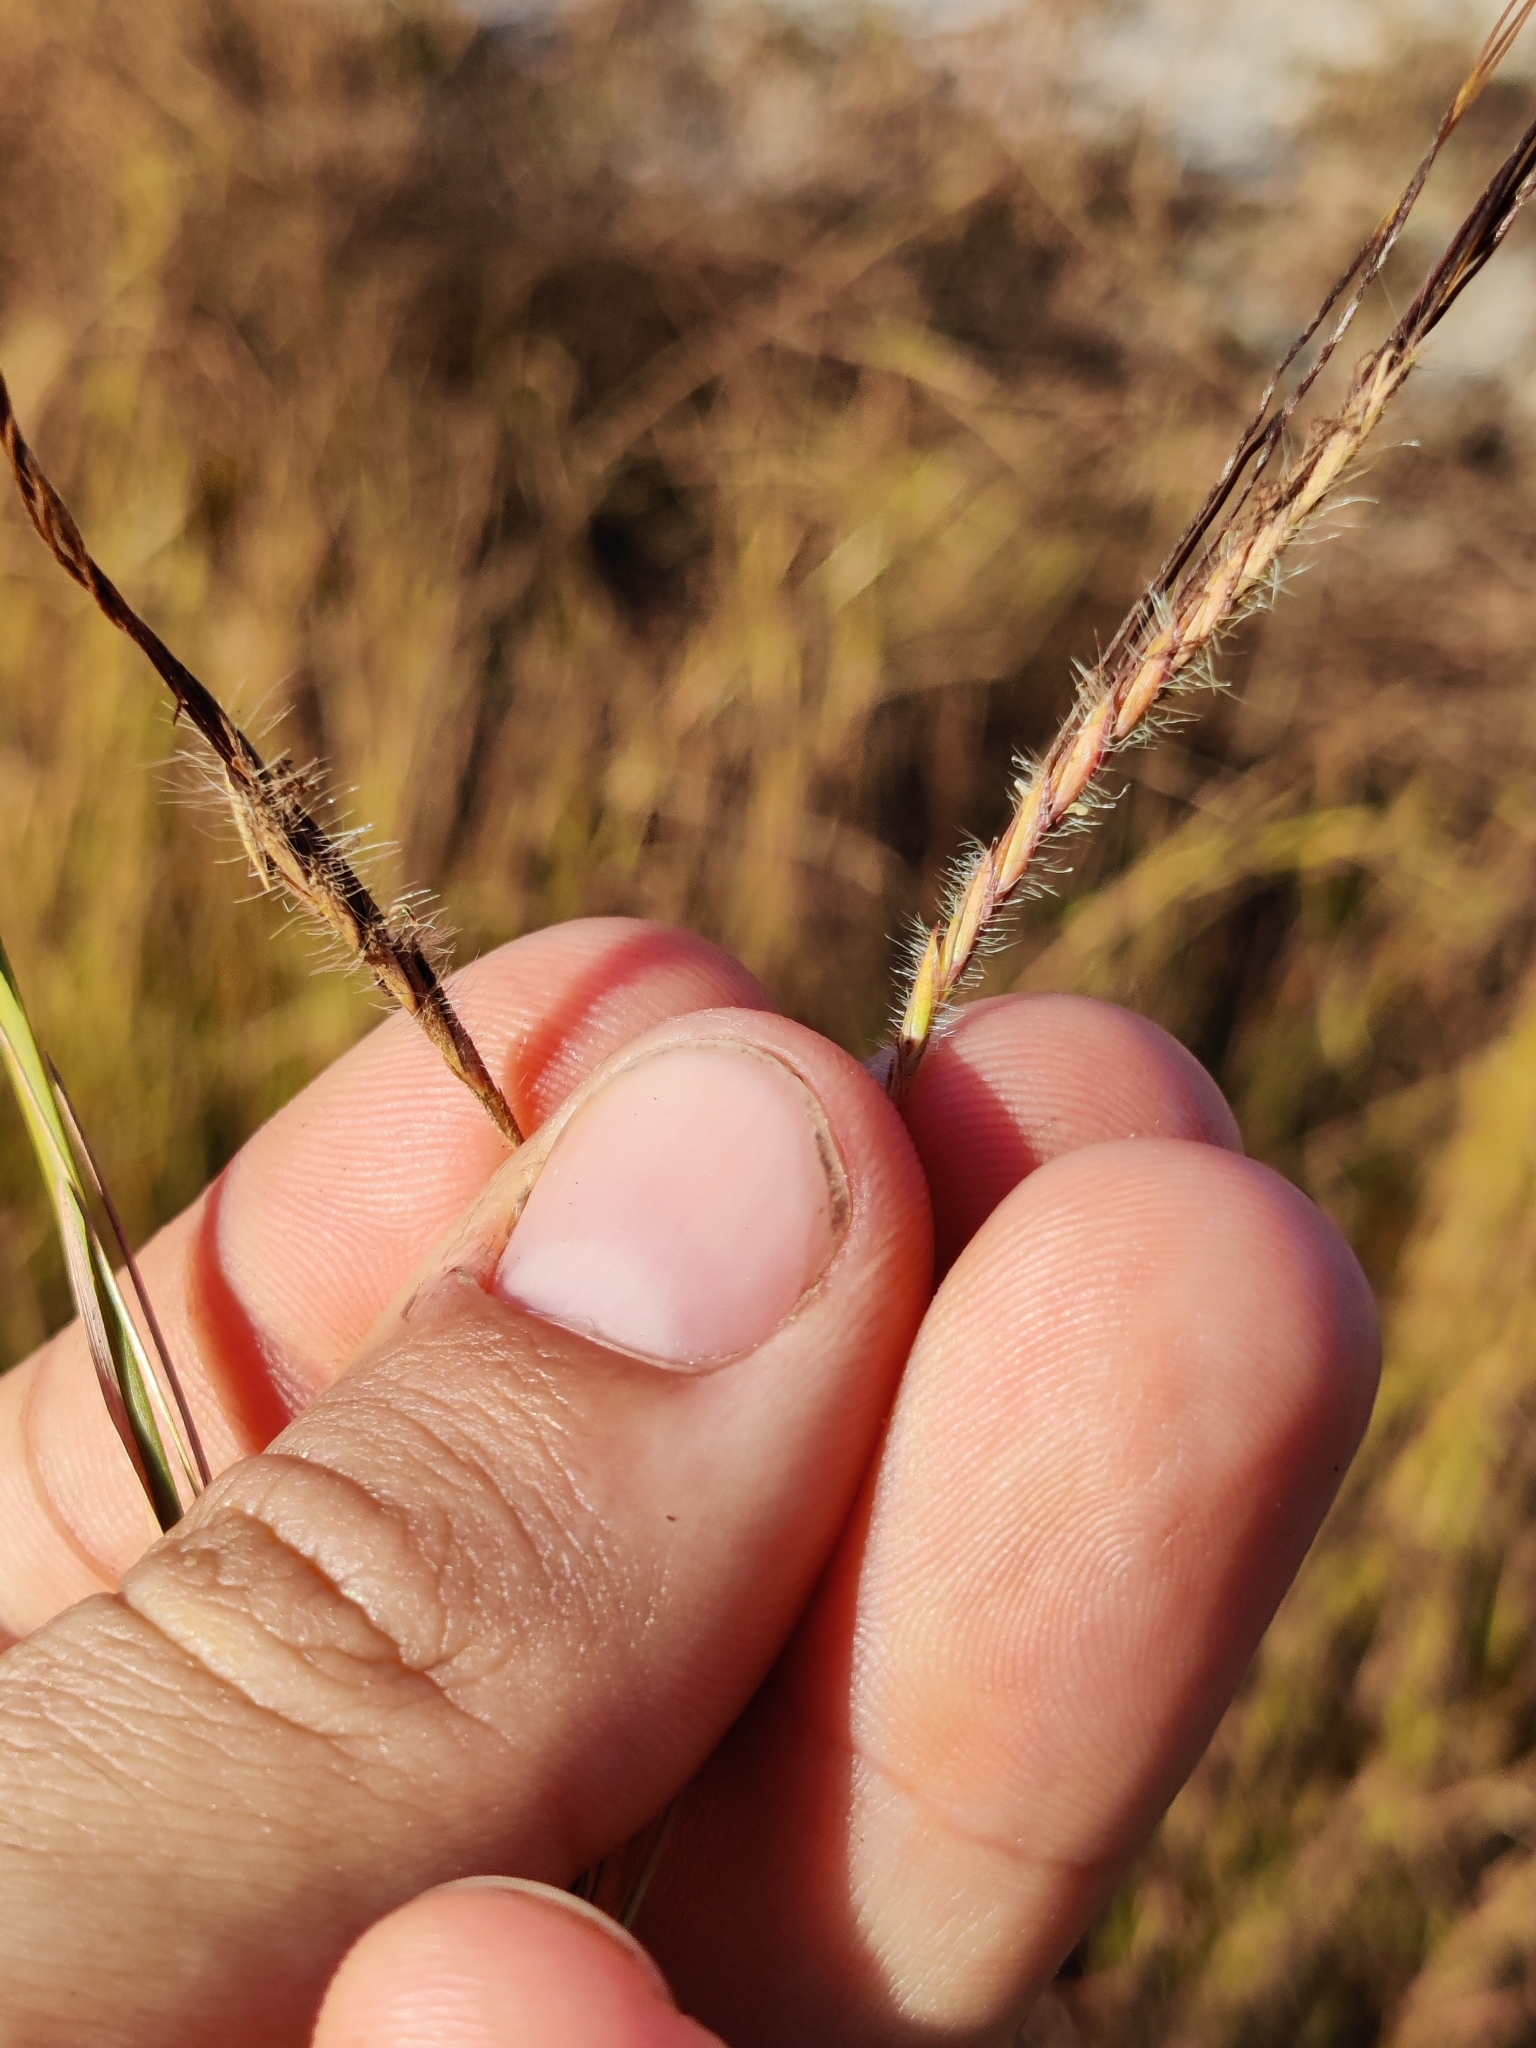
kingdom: Plantae
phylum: Tracheophyta
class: Liliopsida
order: Poales
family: Poaceae
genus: Heteropogon
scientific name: Heteropogon contortus
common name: Tanglehead
